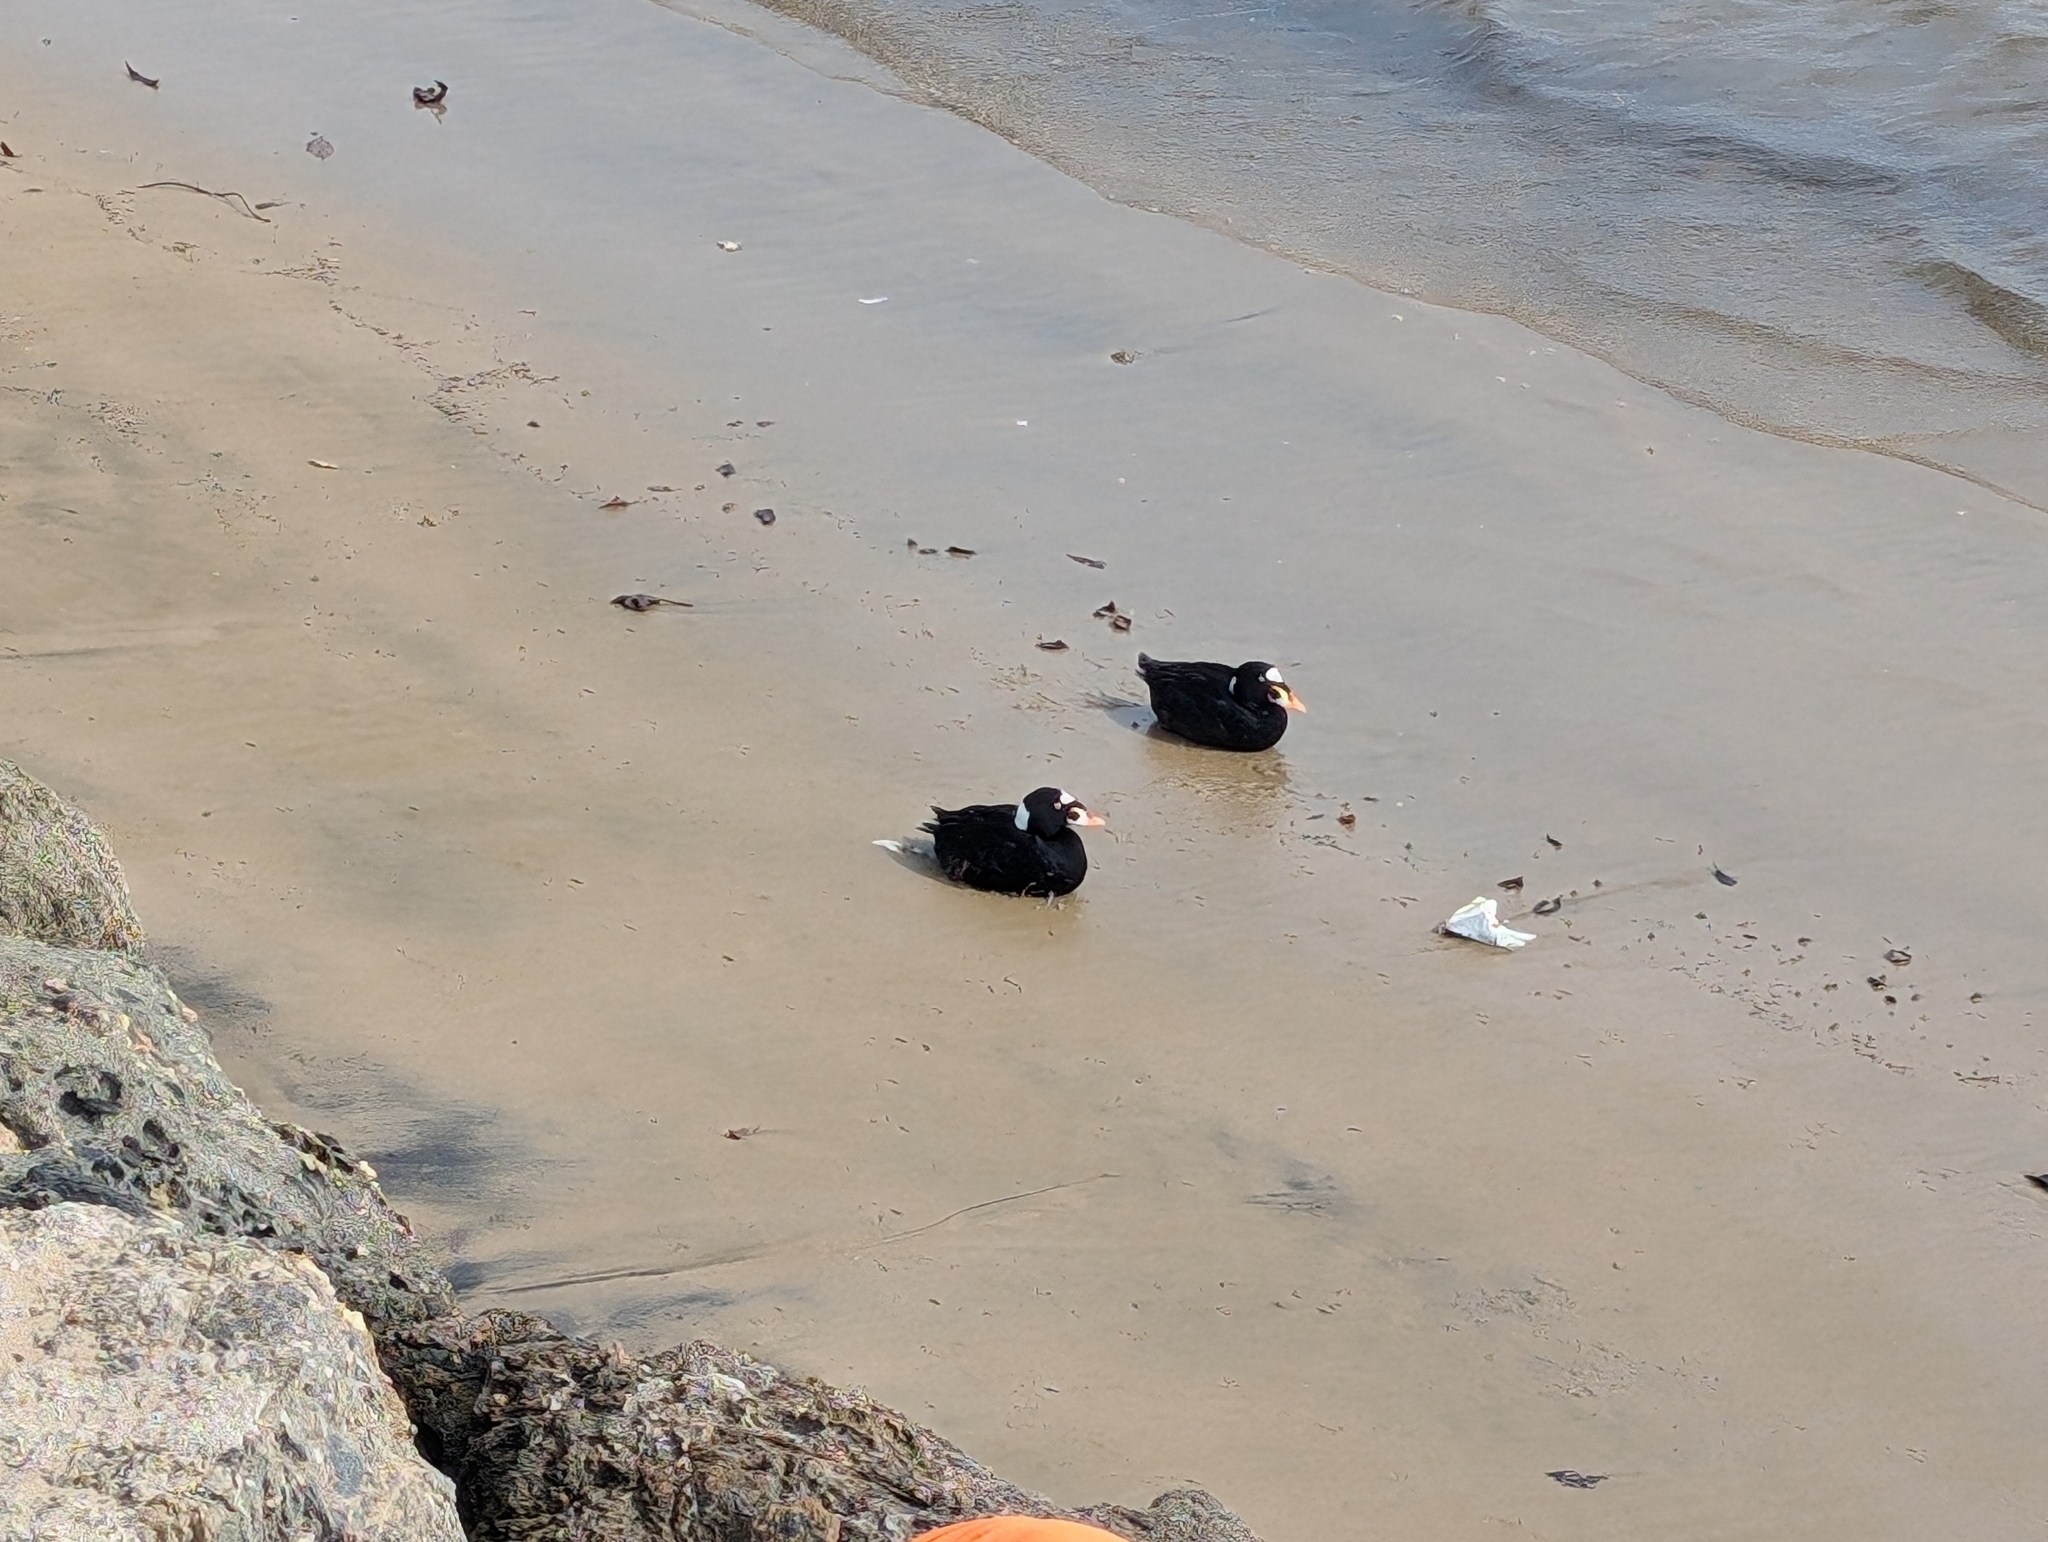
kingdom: Animalia
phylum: Chordata
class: Aves
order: Anseriformes
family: Anatidae
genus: Melanitta
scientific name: Melanitta perspicillata
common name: Surf scoter
